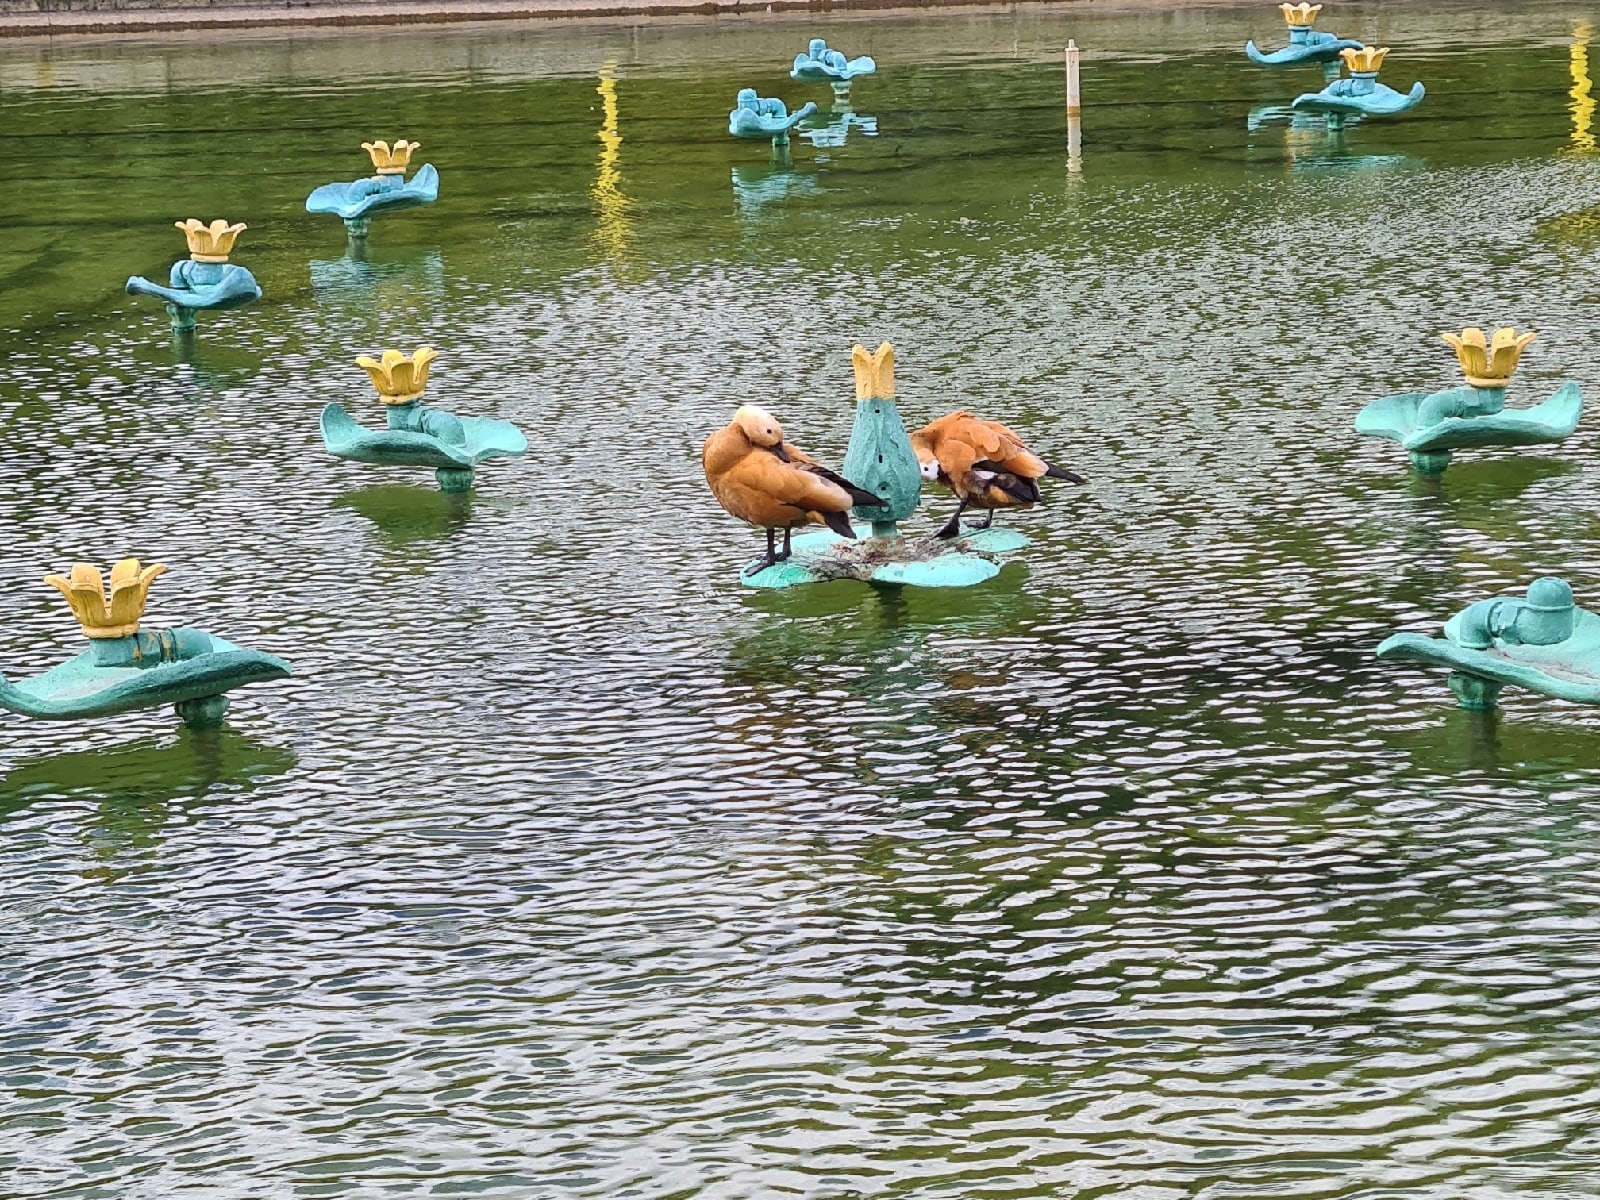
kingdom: Animalia
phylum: Chordata
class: Aves
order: Anseriformes
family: Anatidae
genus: Tadorna
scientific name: Tadorna ferruginea
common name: Ruddy shelduck
